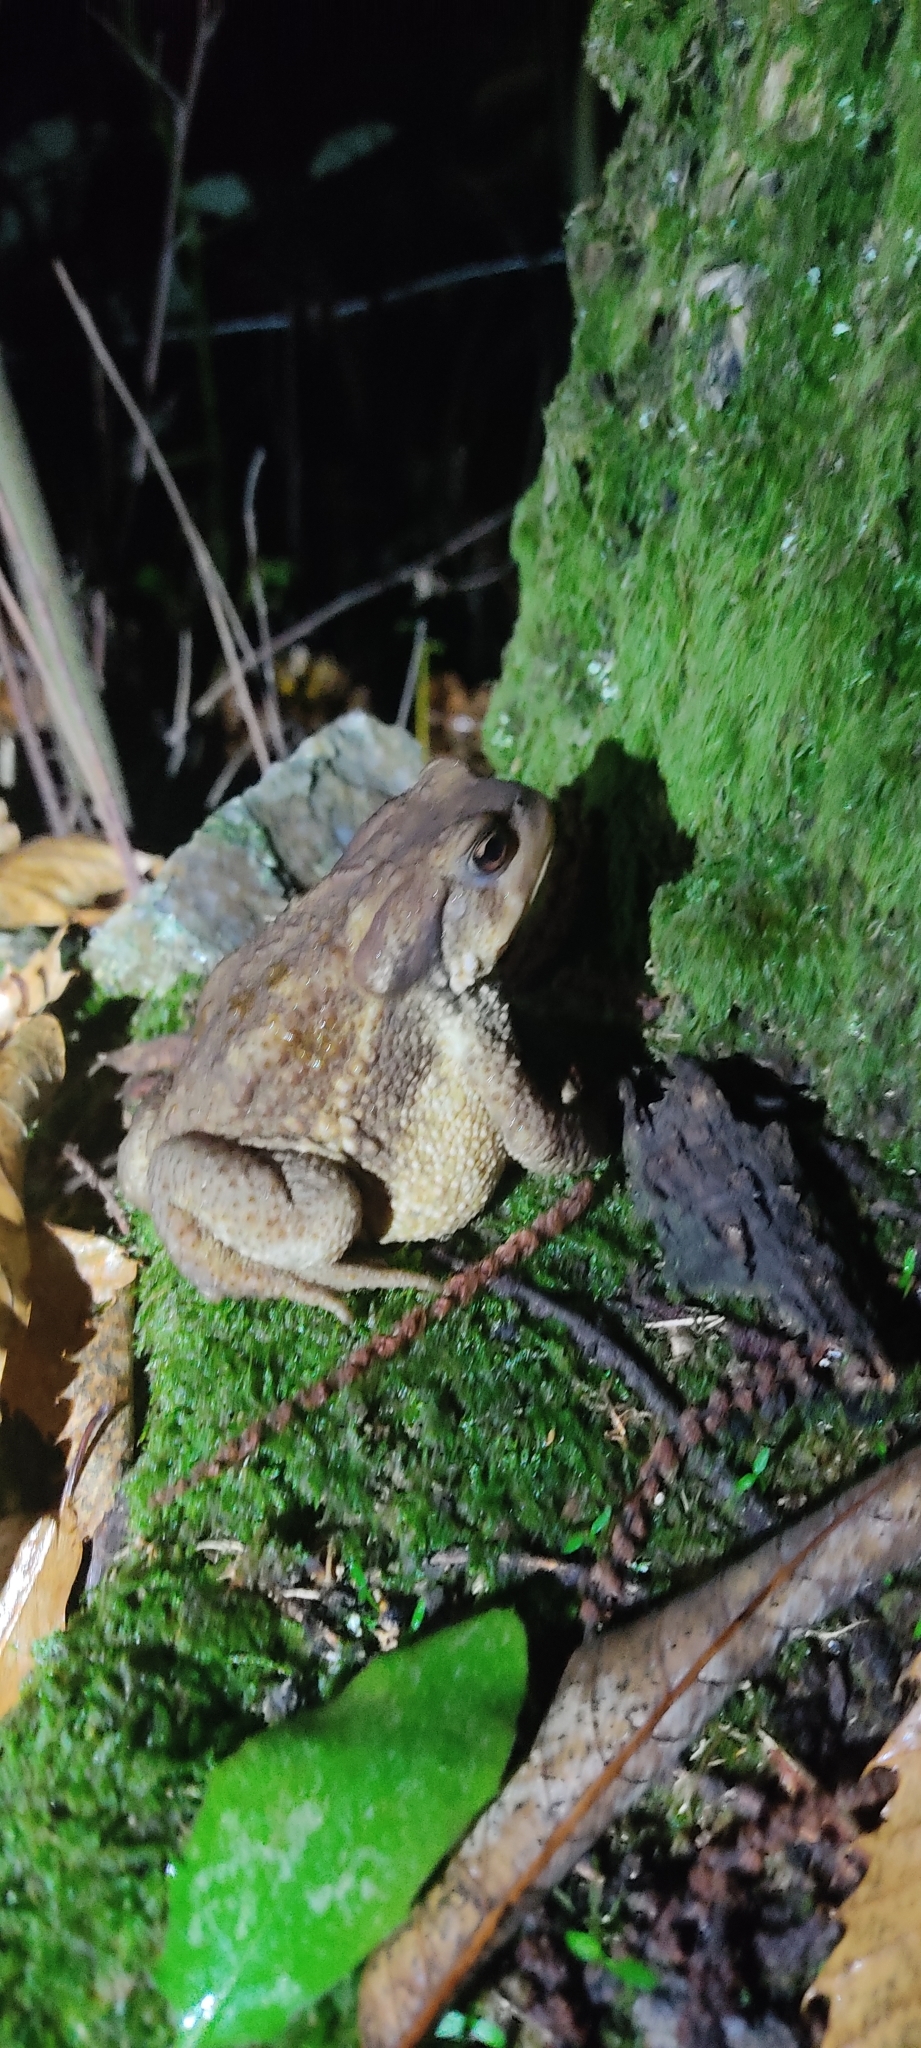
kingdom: Animalia
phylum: Chordata
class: Amphibia
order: Anura
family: Bufonidae
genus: Bufo
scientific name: Bufo spinosus
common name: Western common toad
